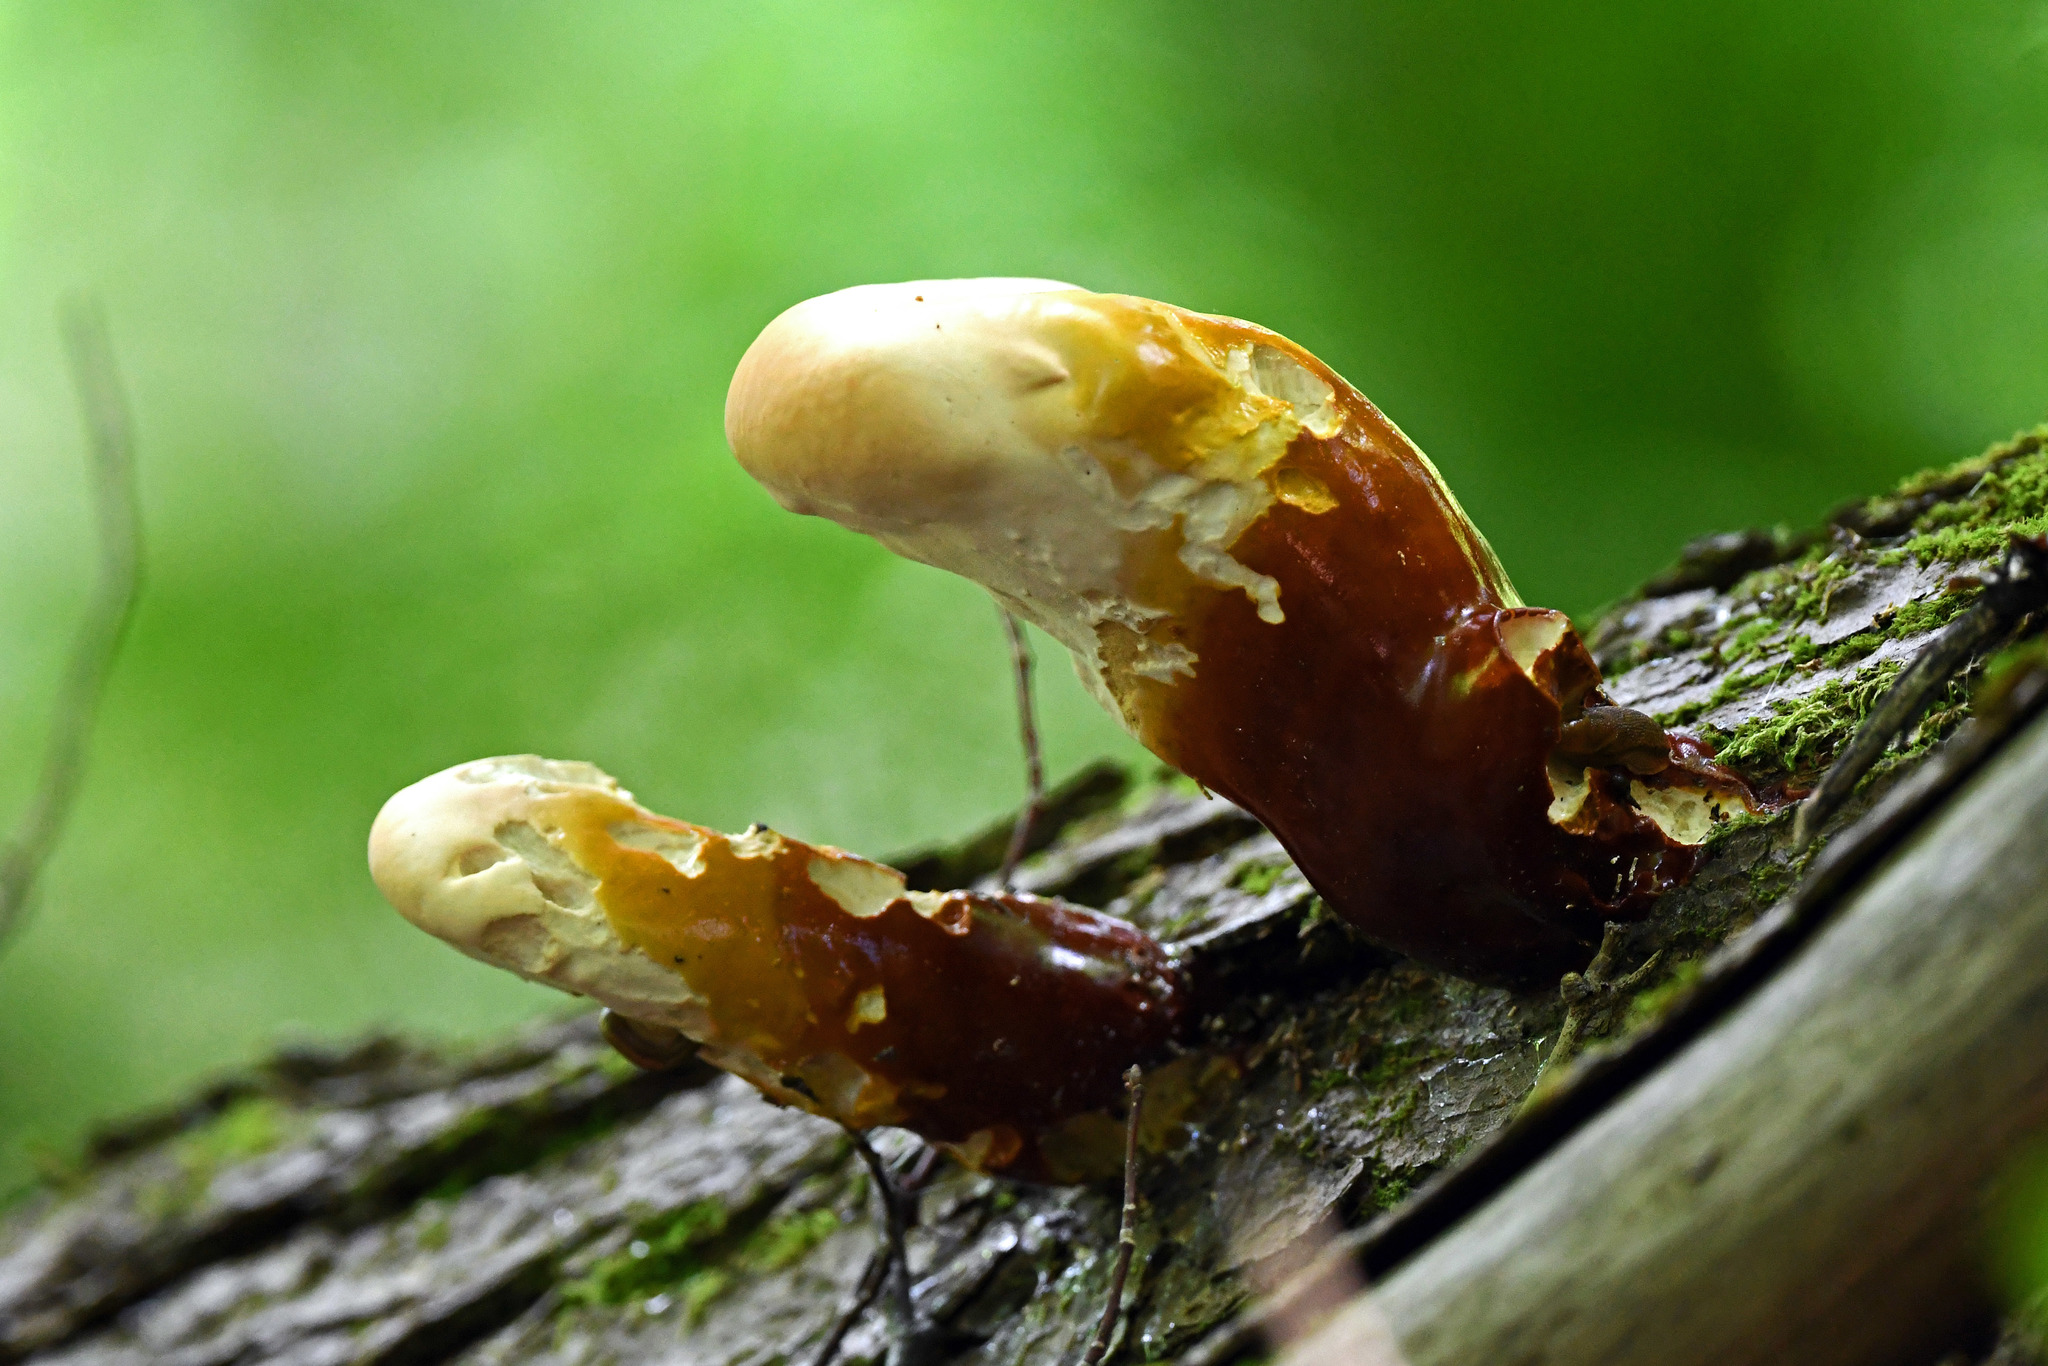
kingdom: Fungi
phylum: Basidiomycota
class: Agaricomycetes
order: Polyporales
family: Polyporaceae
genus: Ganoderma
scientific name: Ganoderma tsugae
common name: Hemlock varnish shelf
